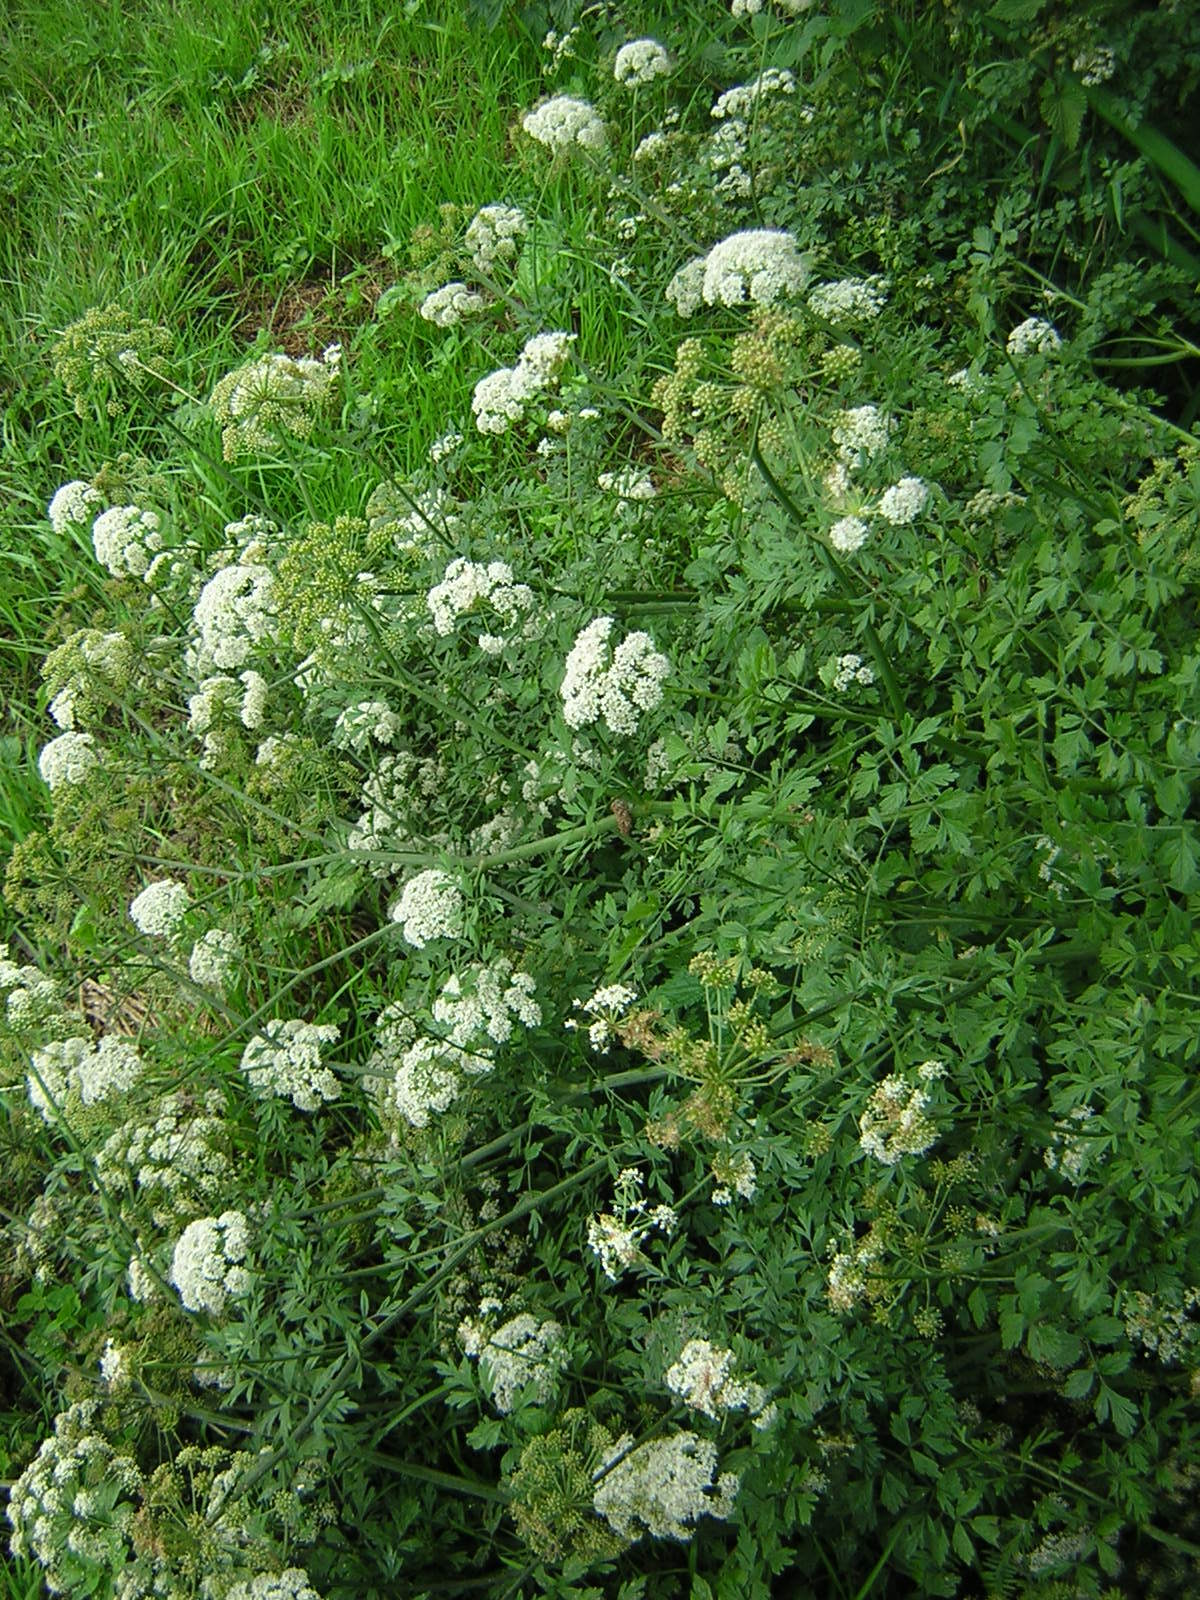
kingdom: Plantae
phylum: Tracheophyta
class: Magnoliopsida
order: Apiales
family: Apiaceae
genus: Oenanthe
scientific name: Oenanthe crocata
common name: Hemlock water-dropwort
